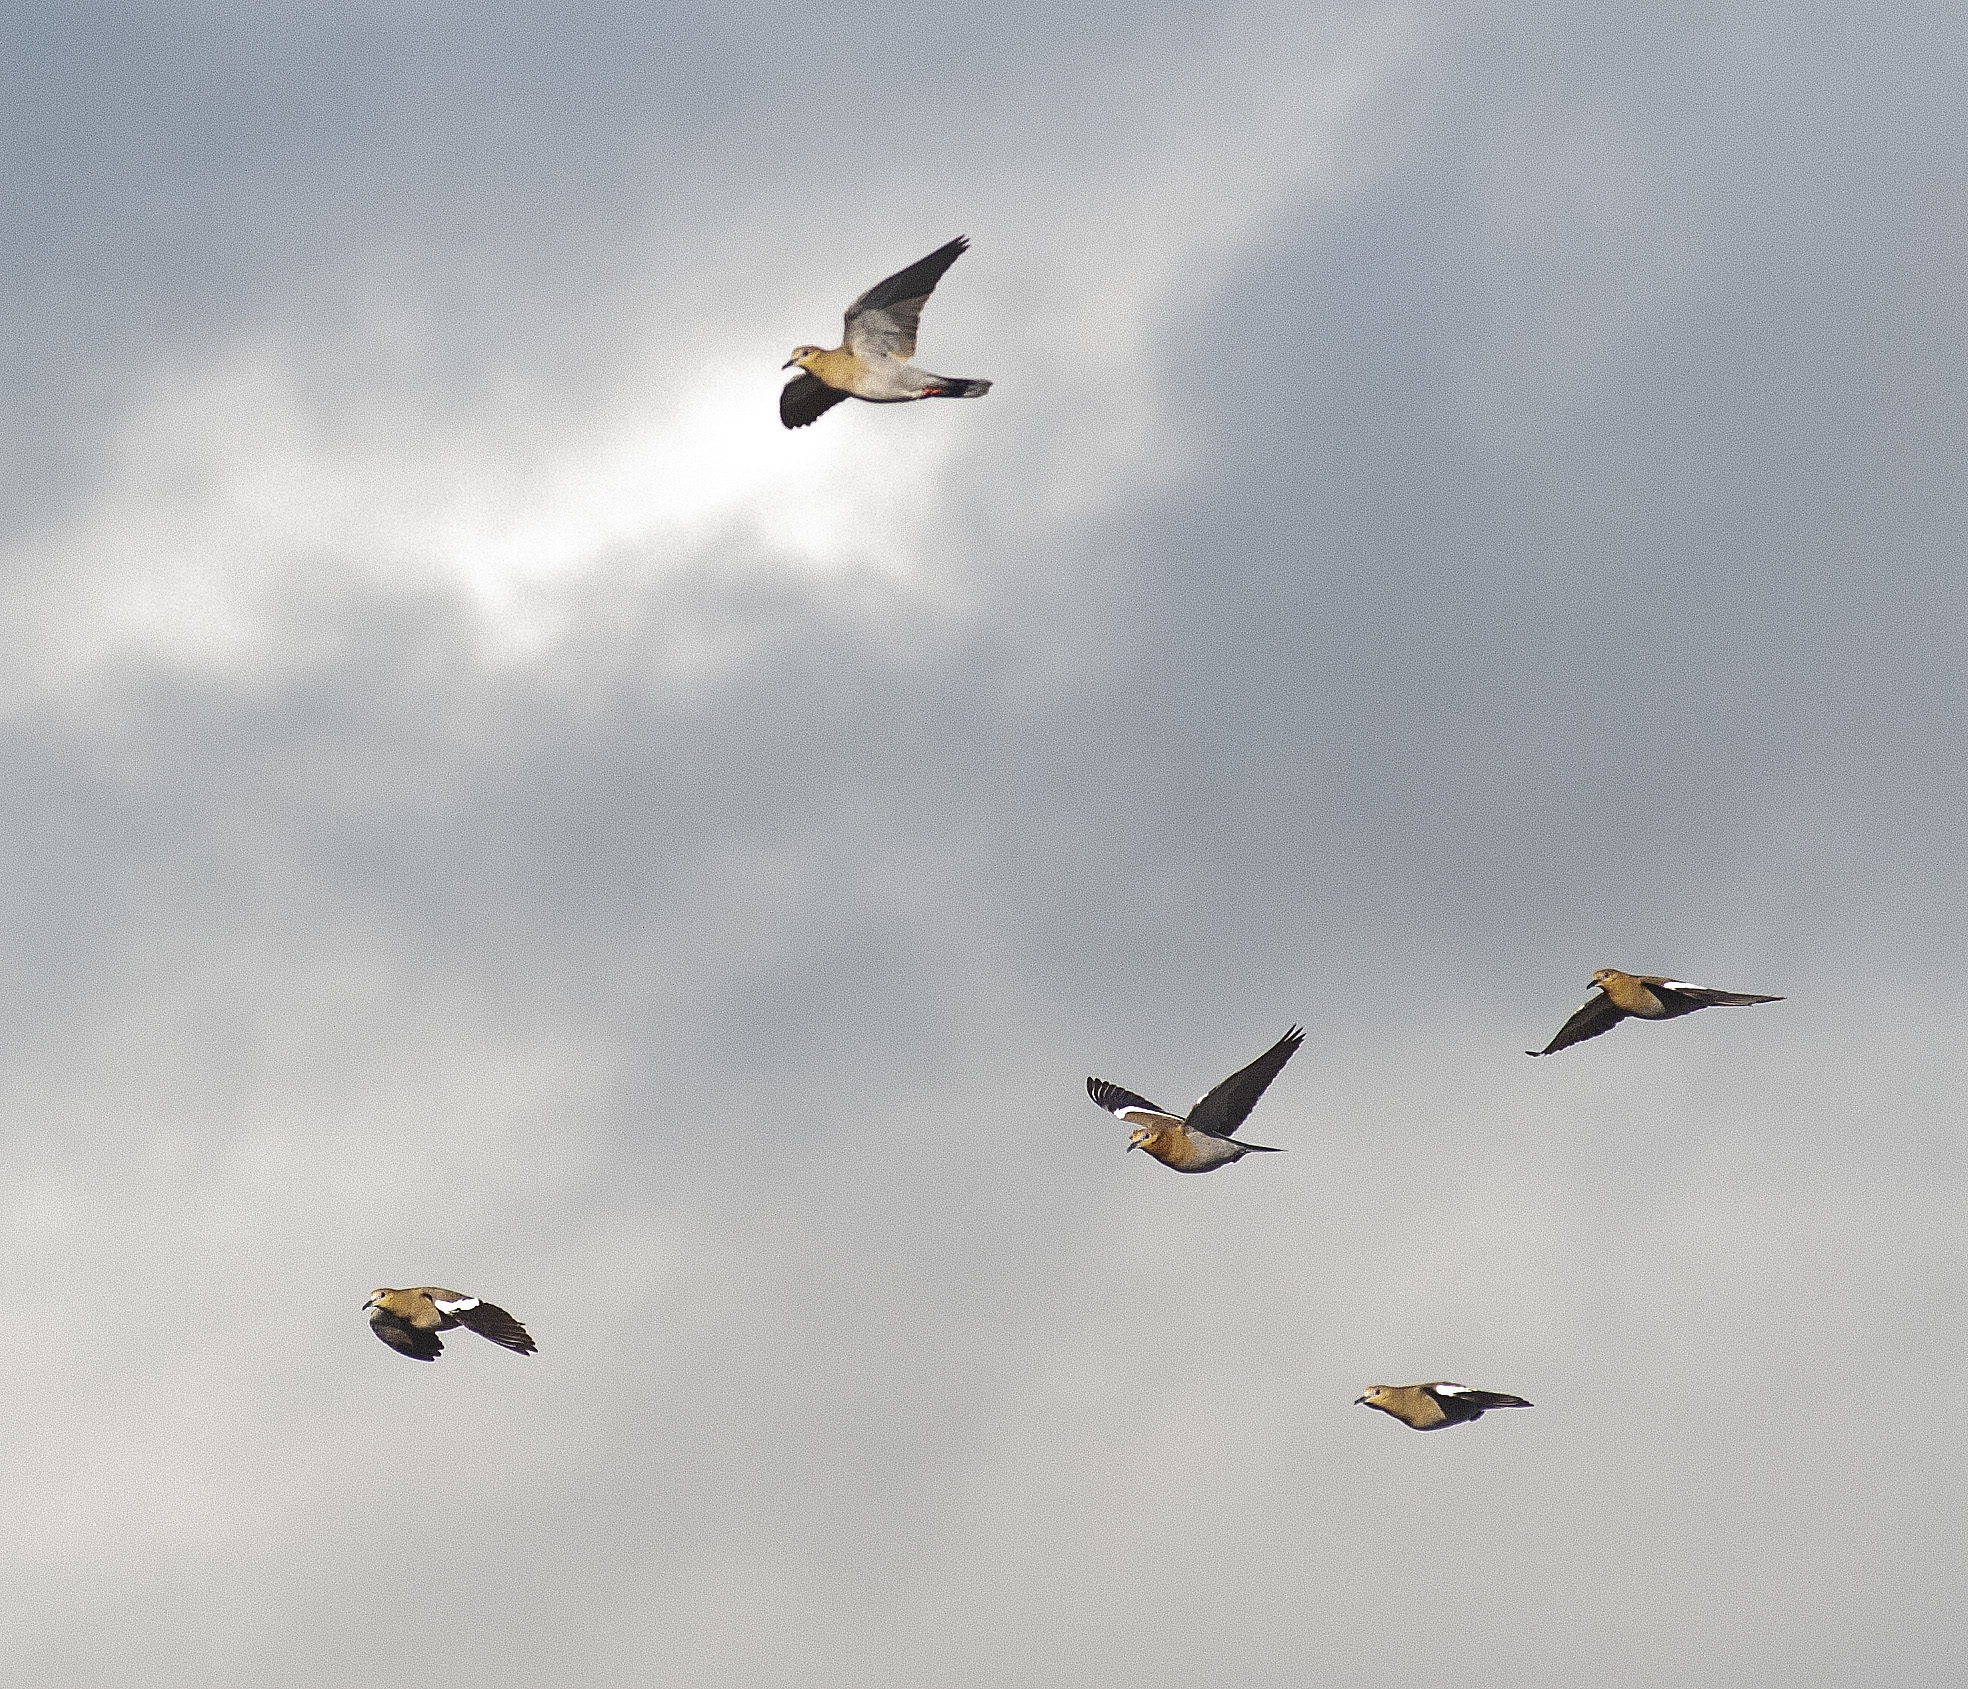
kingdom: Animalia
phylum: Chordata
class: Aves
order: Columbiformes
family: Columbidae
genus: Zenaida
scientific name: Zenaida asiatica
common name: White-winged dove
